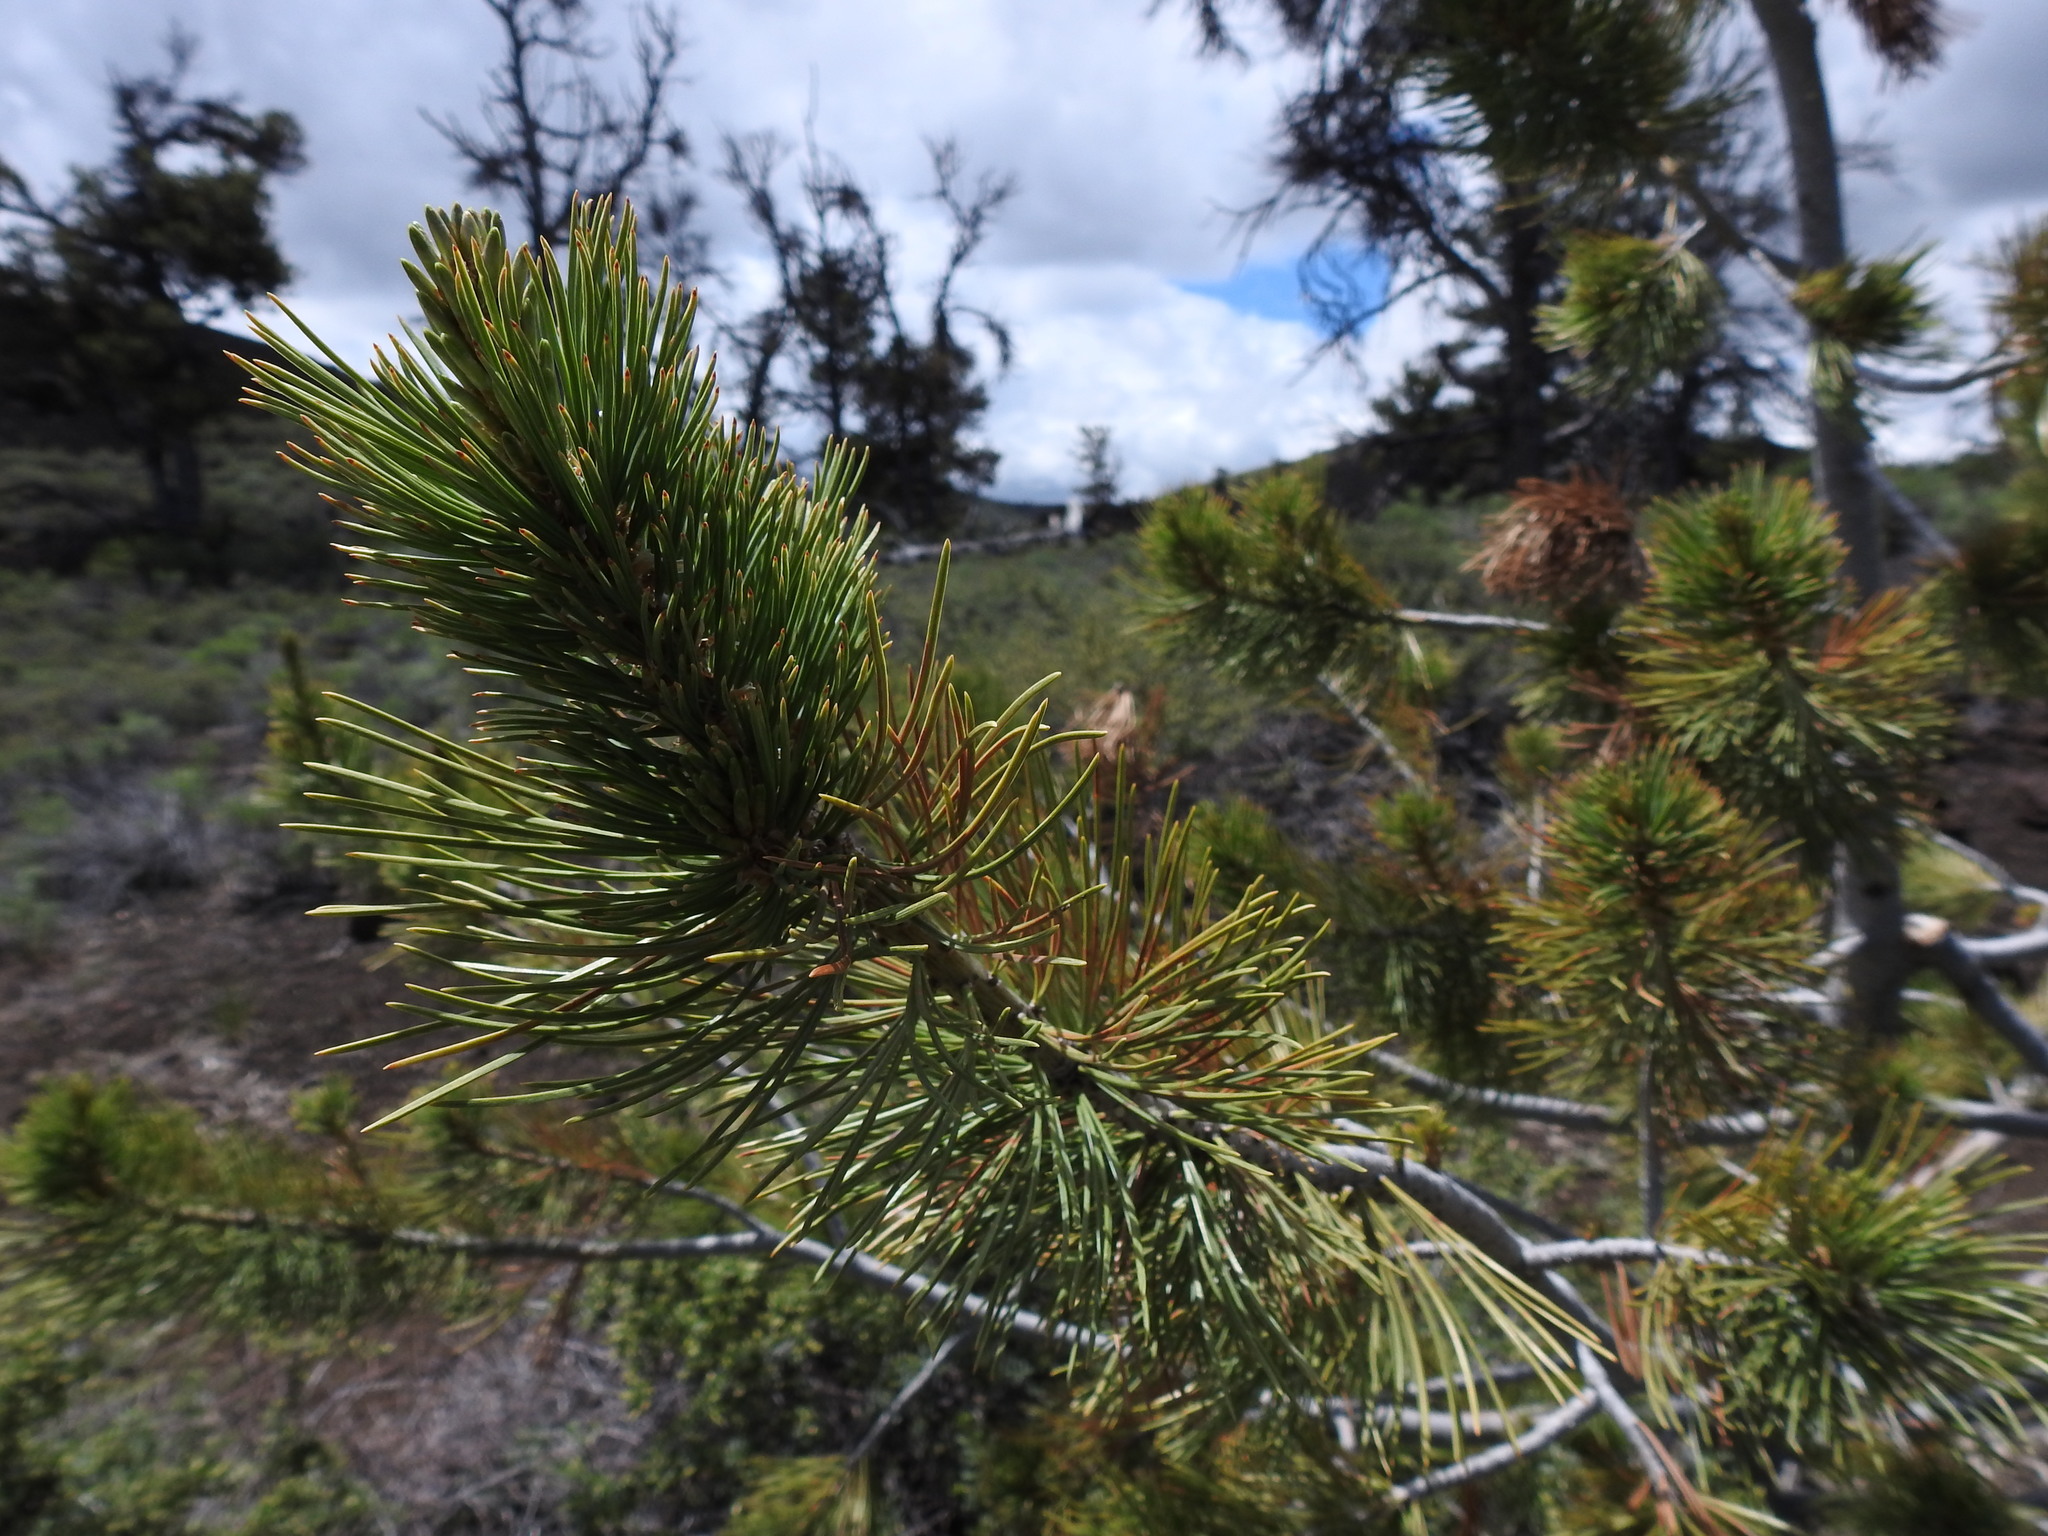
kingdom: Plantae
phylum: Tracheophyta
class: Pinopsida
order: Pinales
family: Pinaceae
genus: Pinus
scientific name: Pinus flexilis
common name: Limber pine
